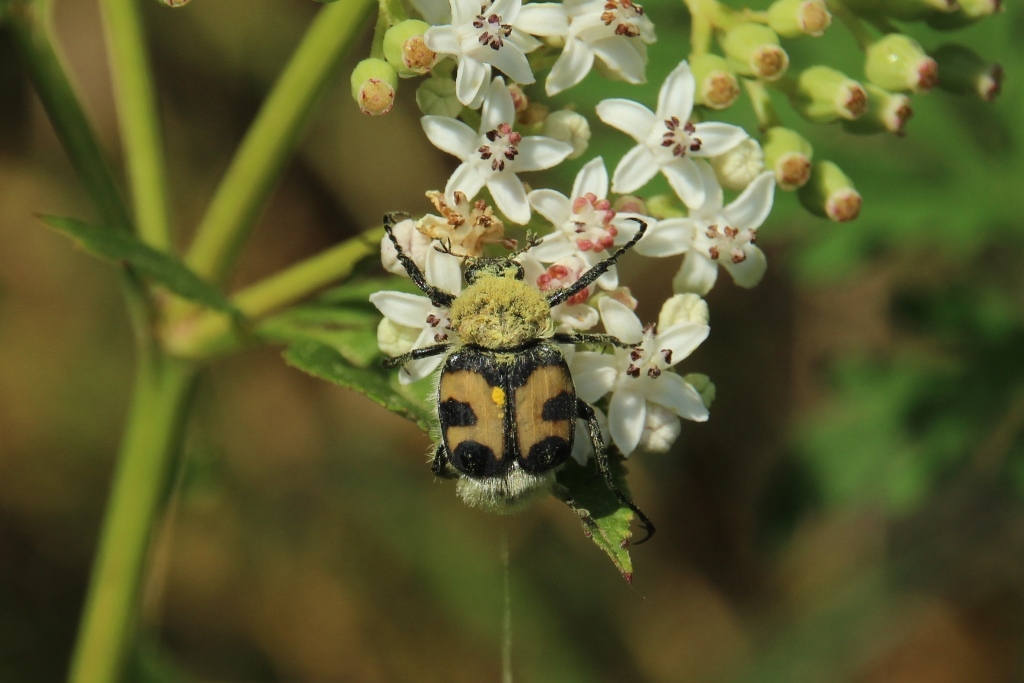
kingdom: Animalia
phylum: Arthropoda
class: Insecta
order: Coleoptera
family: Scarabaeidae
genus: Trichius
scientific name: Trichius fasciatus
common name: Bee beetle
